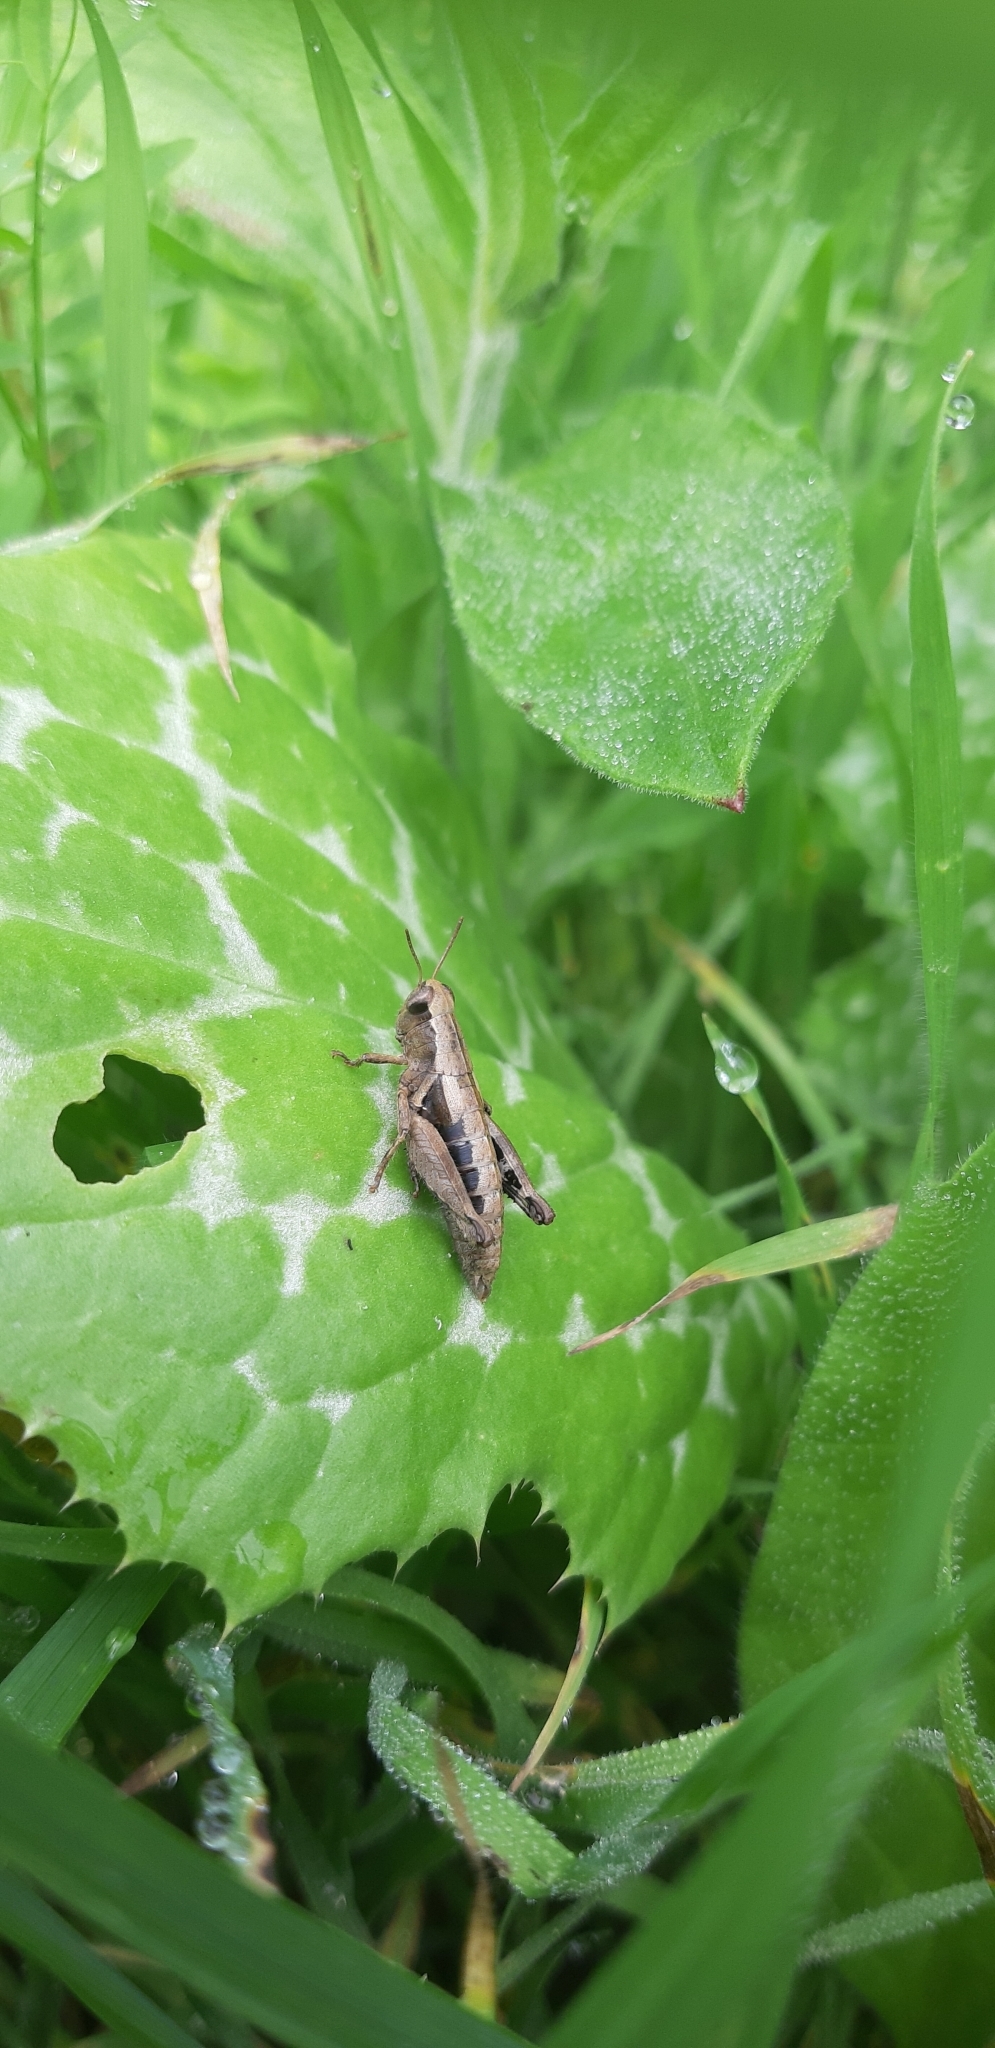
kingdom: Animalia
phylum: Arthropoda
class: Insecta
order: Orthoptera
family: Acrididae
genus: Pezotettix
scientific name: Pezotettix giornae
